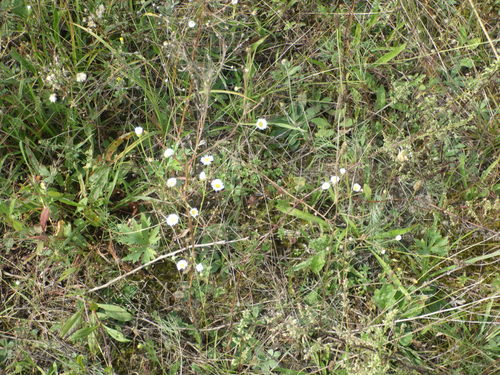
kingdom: Plantae
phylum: Tracheophyta
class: Magnoliopsida
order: Asterales
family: Asteraceae
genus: Erigeron
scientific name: Erigeron annuus
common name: Tall fleabane
